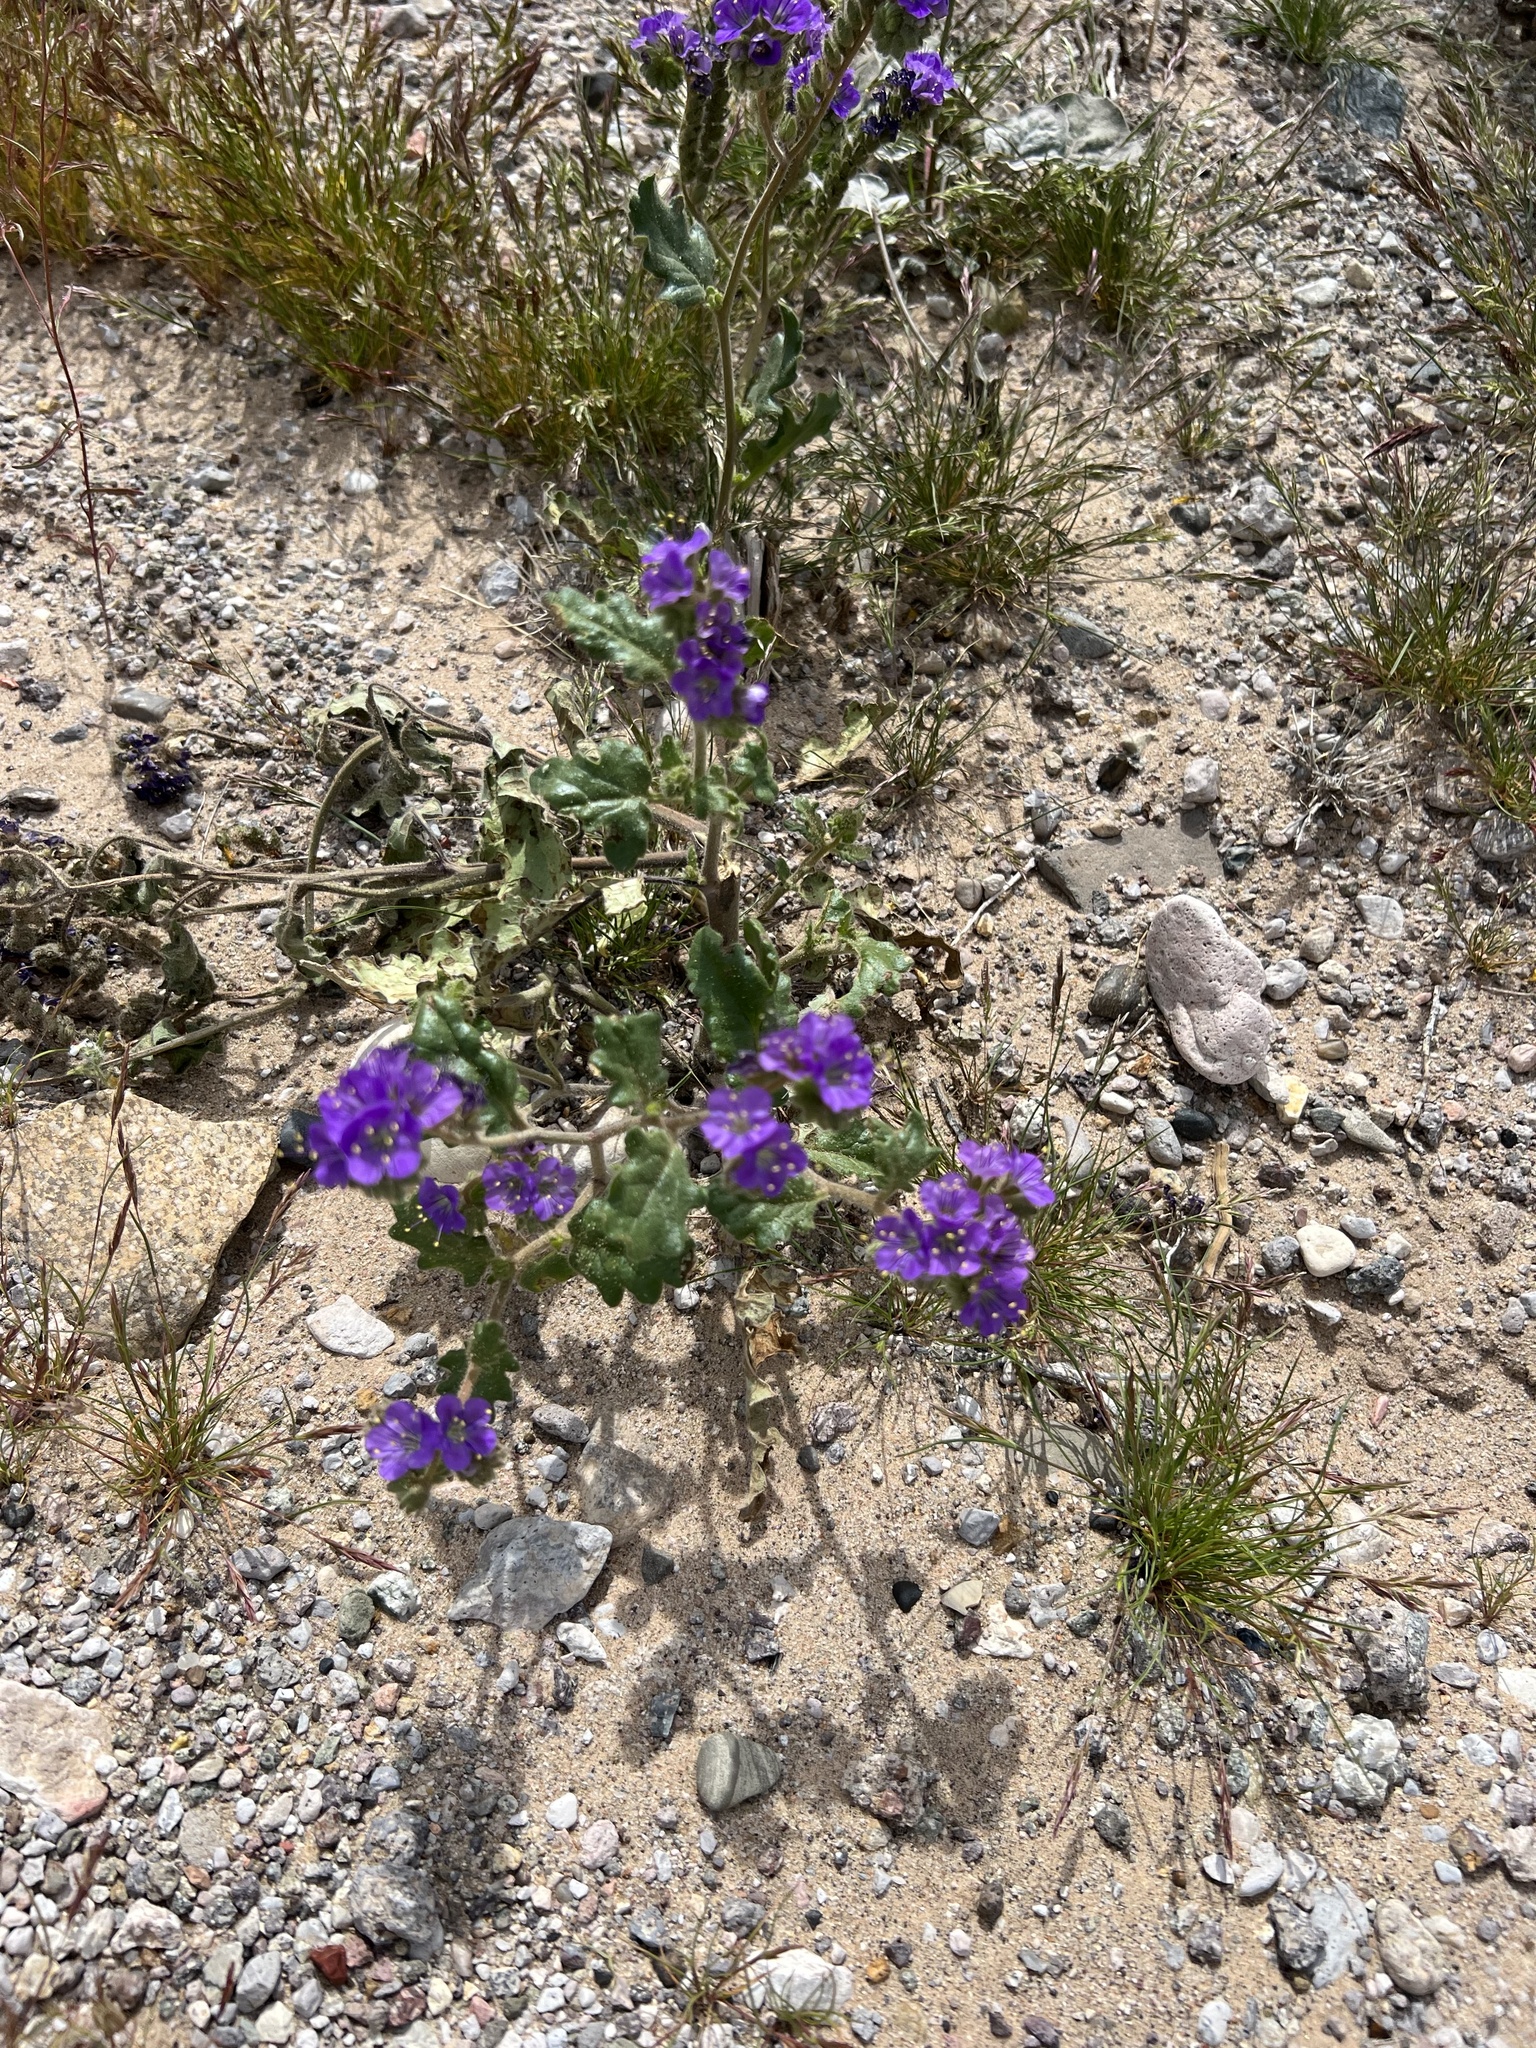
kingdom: Plantae
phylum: Tracheophyta
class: Magnoliopsida
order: Boraginales
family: Hydrophyllaceae
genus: Phacelia
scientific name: Phacelia crenulata
